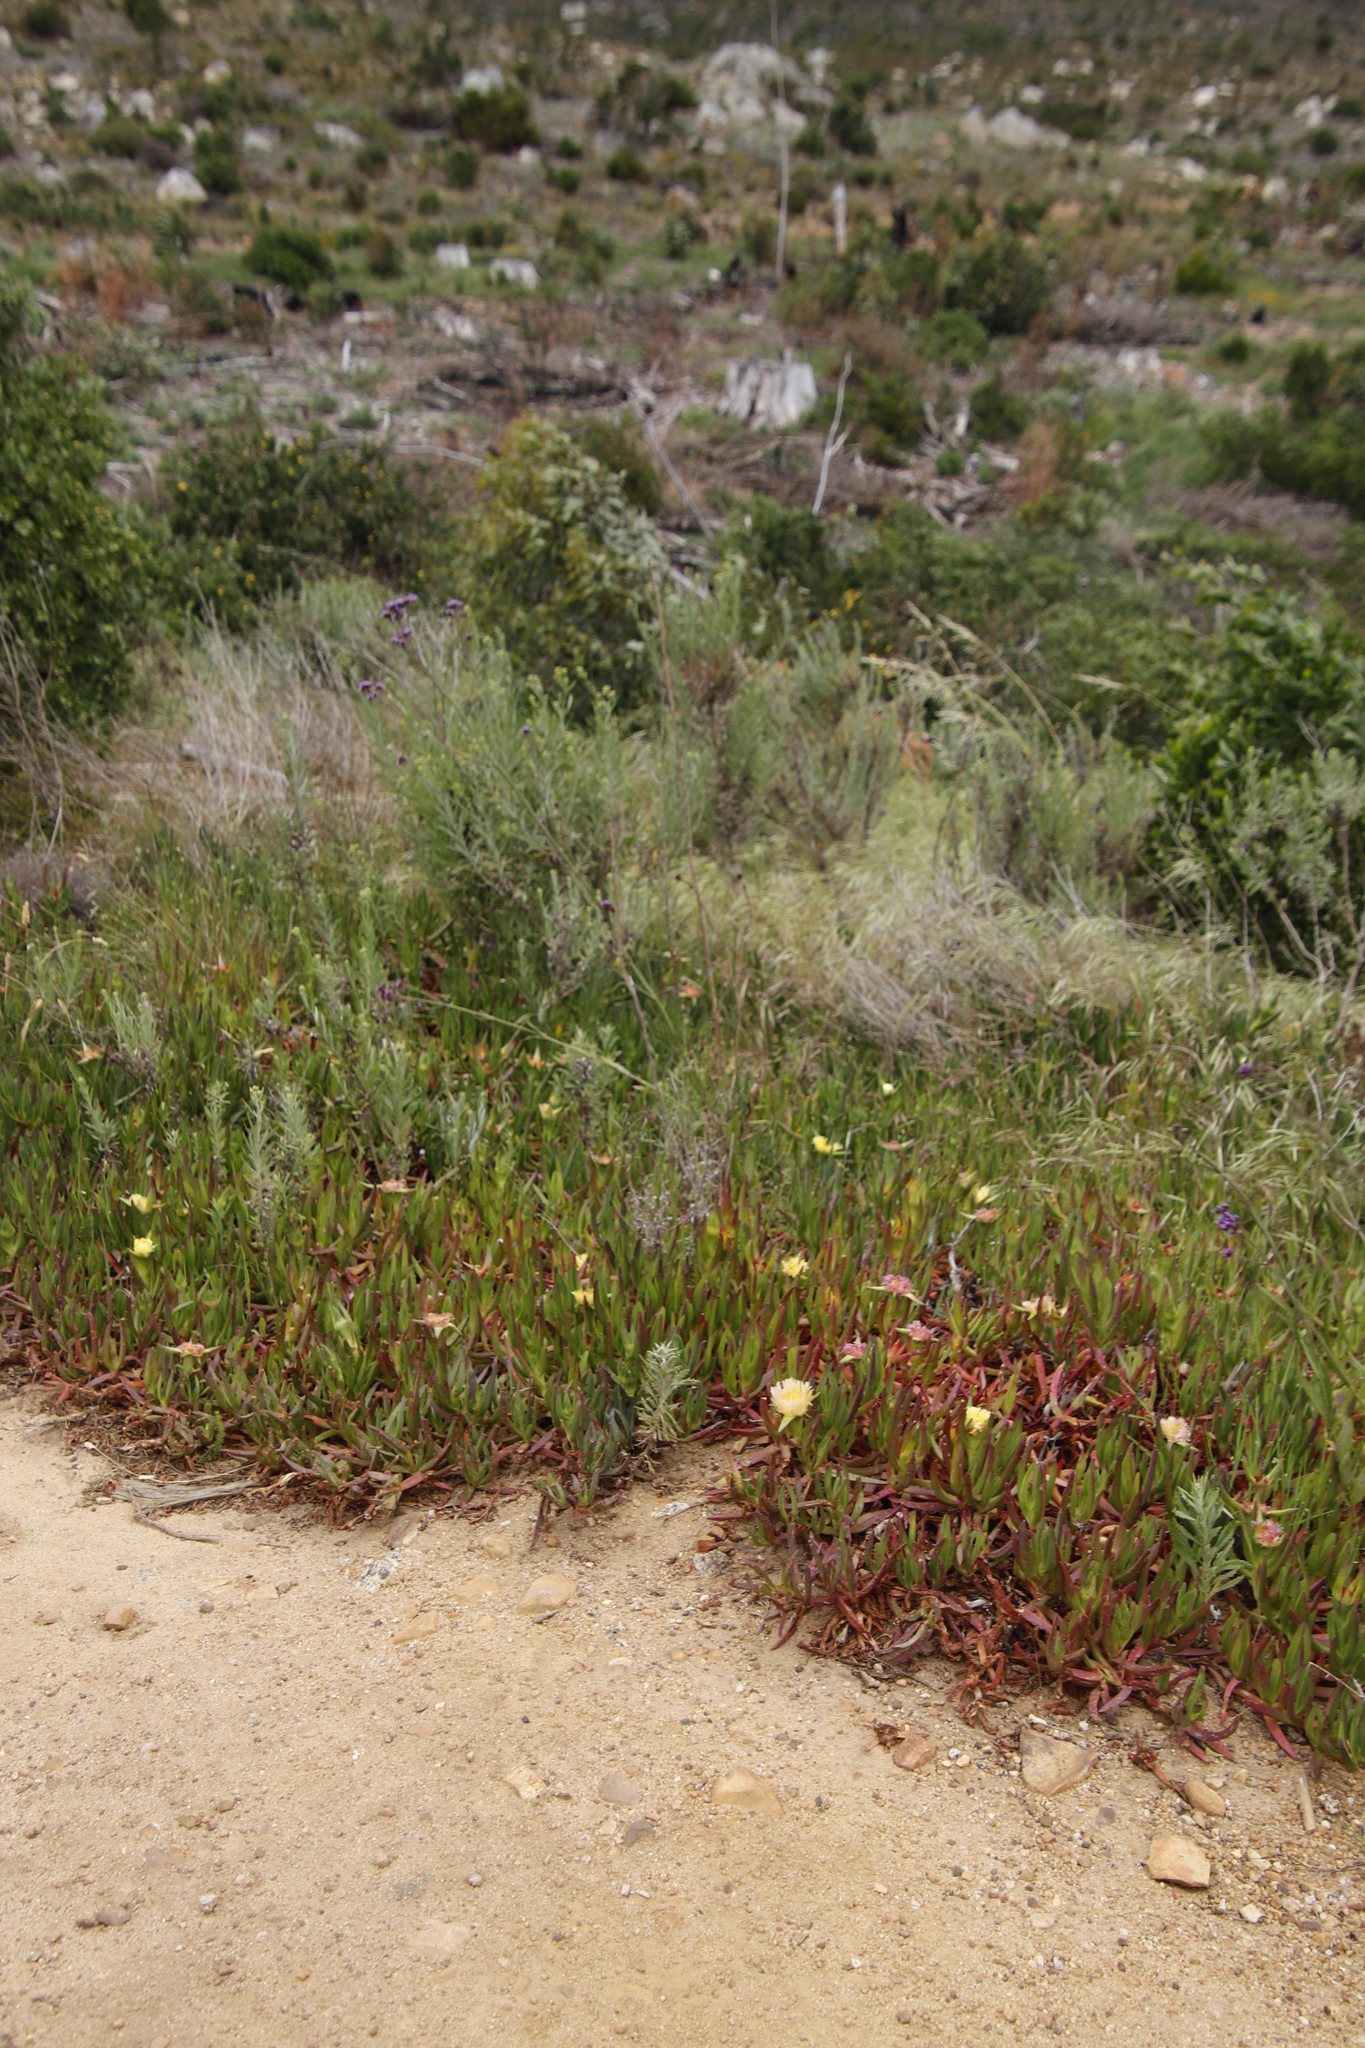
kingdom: Plantae
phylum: Tracheophyta
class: Magnoliopsida
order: Lamiales
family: Verbenaceae
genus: Verbena
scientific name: Verbena bonariensis
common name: Purpletop vervain
